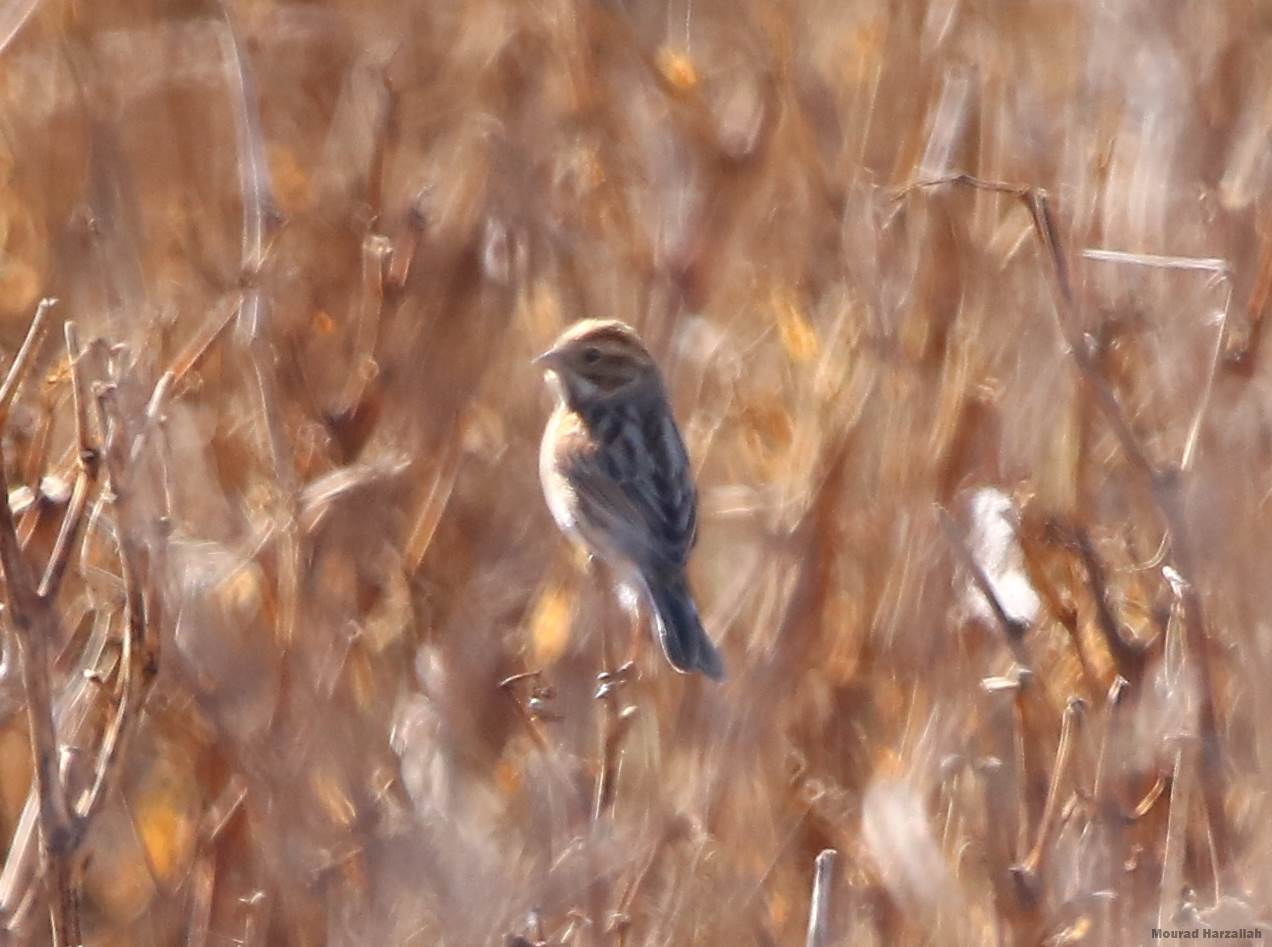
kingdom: Animalia
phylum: Chordata
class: Aves
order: Passeriformes
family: Emberizidae
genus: Emberiza
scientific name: Emberiza schoeniclus
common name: Reed bunting
